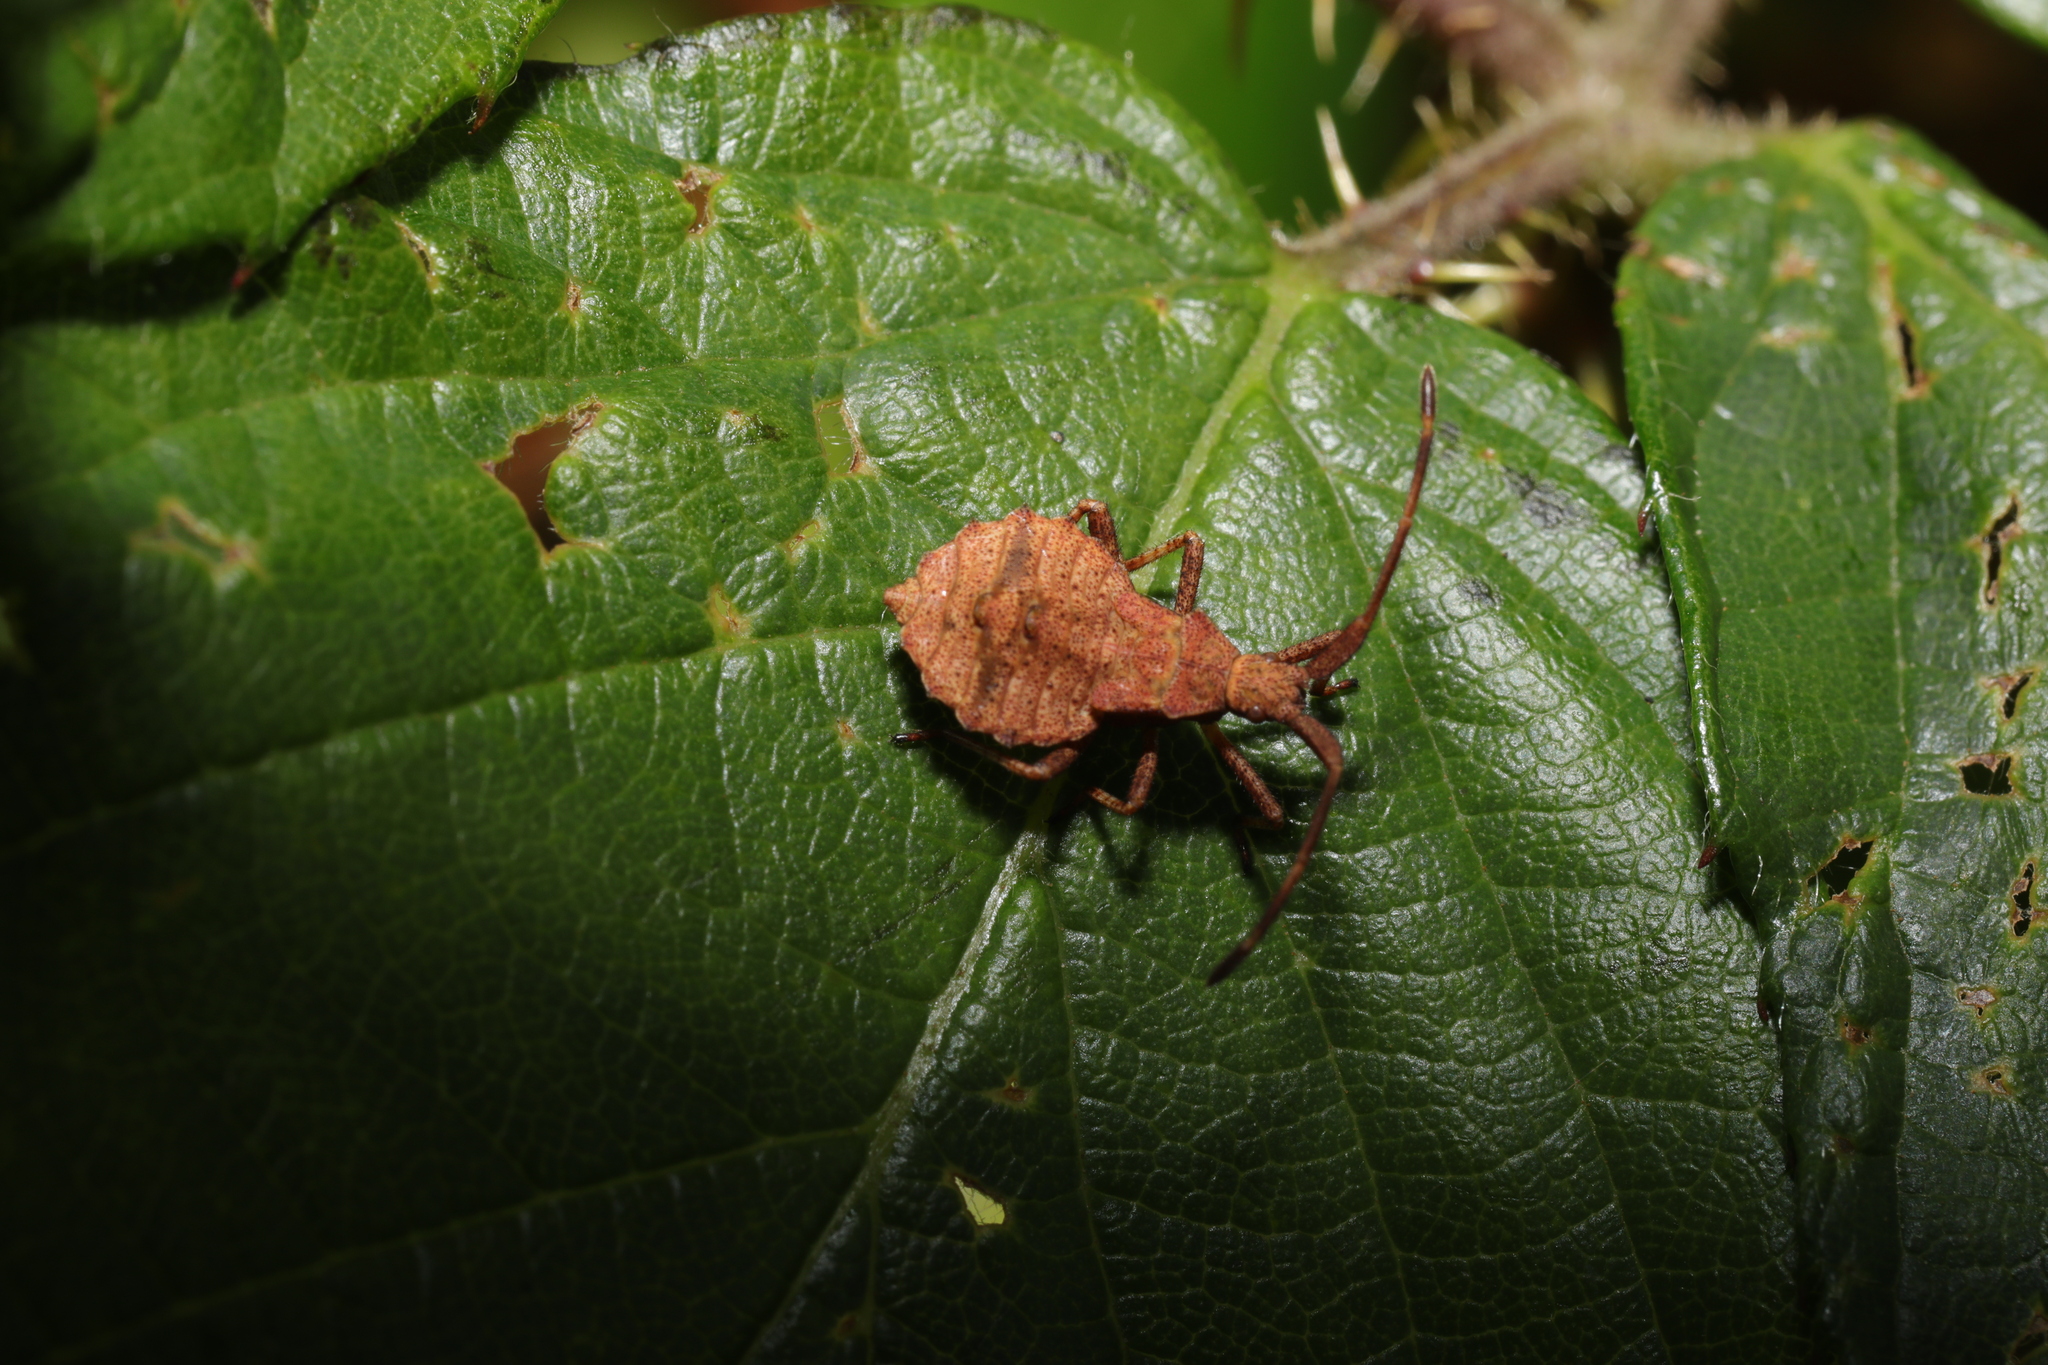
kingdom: Animalia
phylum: Arthropoda
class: Insecta
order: Hemiptera
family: Coreidae
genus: Coreus
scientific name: Coreus marginatus
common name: Dock bug
